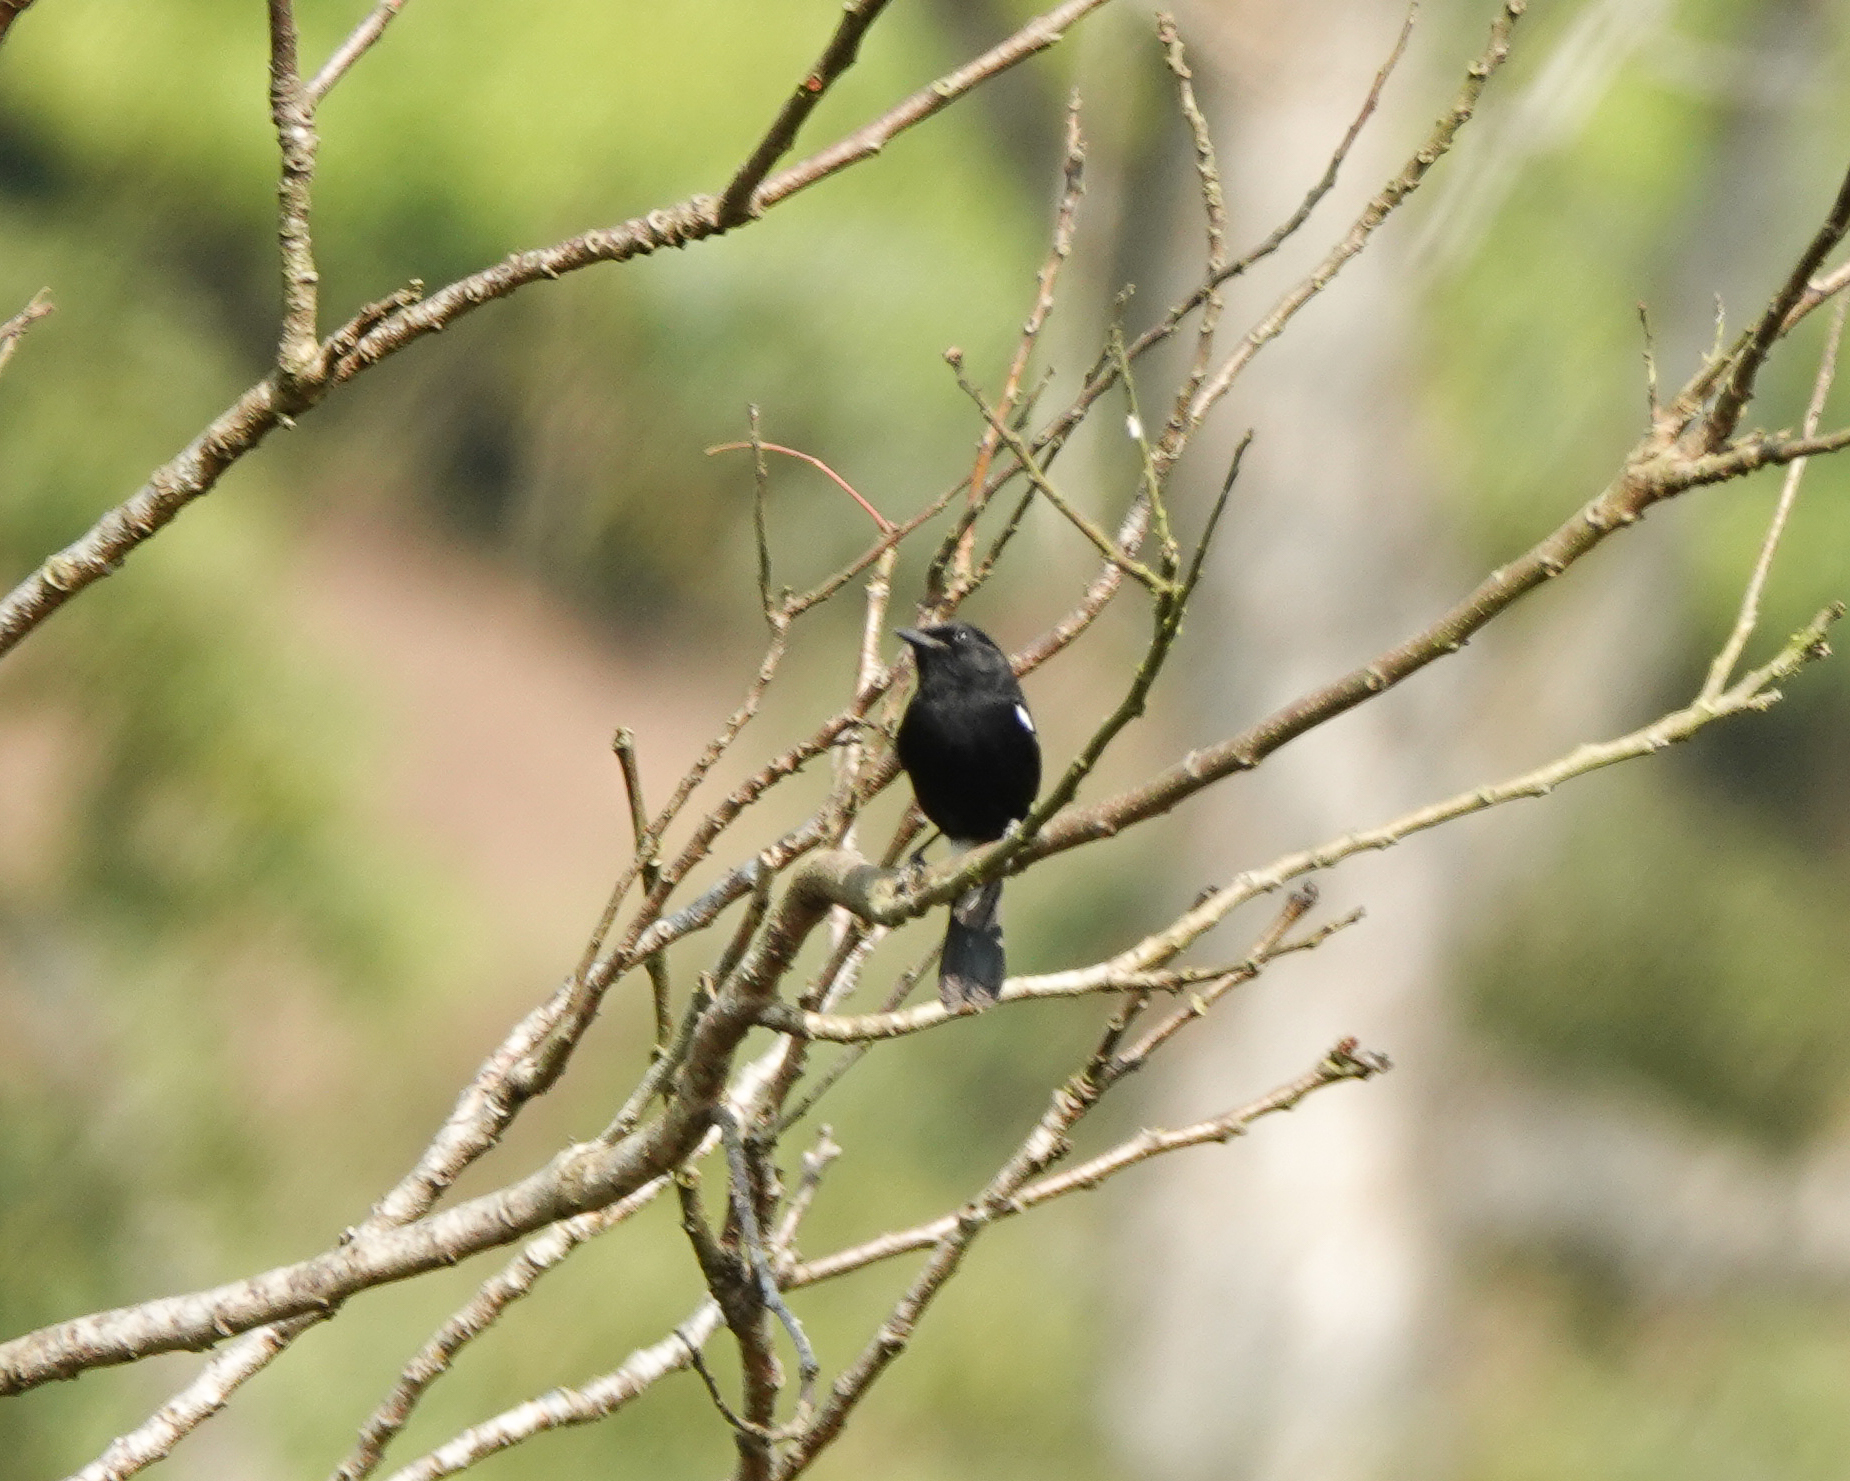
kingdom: Animalia
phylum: Chordata
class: Aves
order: Passeriformes
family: Muscicapidae
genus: Saxicola
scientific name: Saxicola caprata
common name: Pied bush chat
